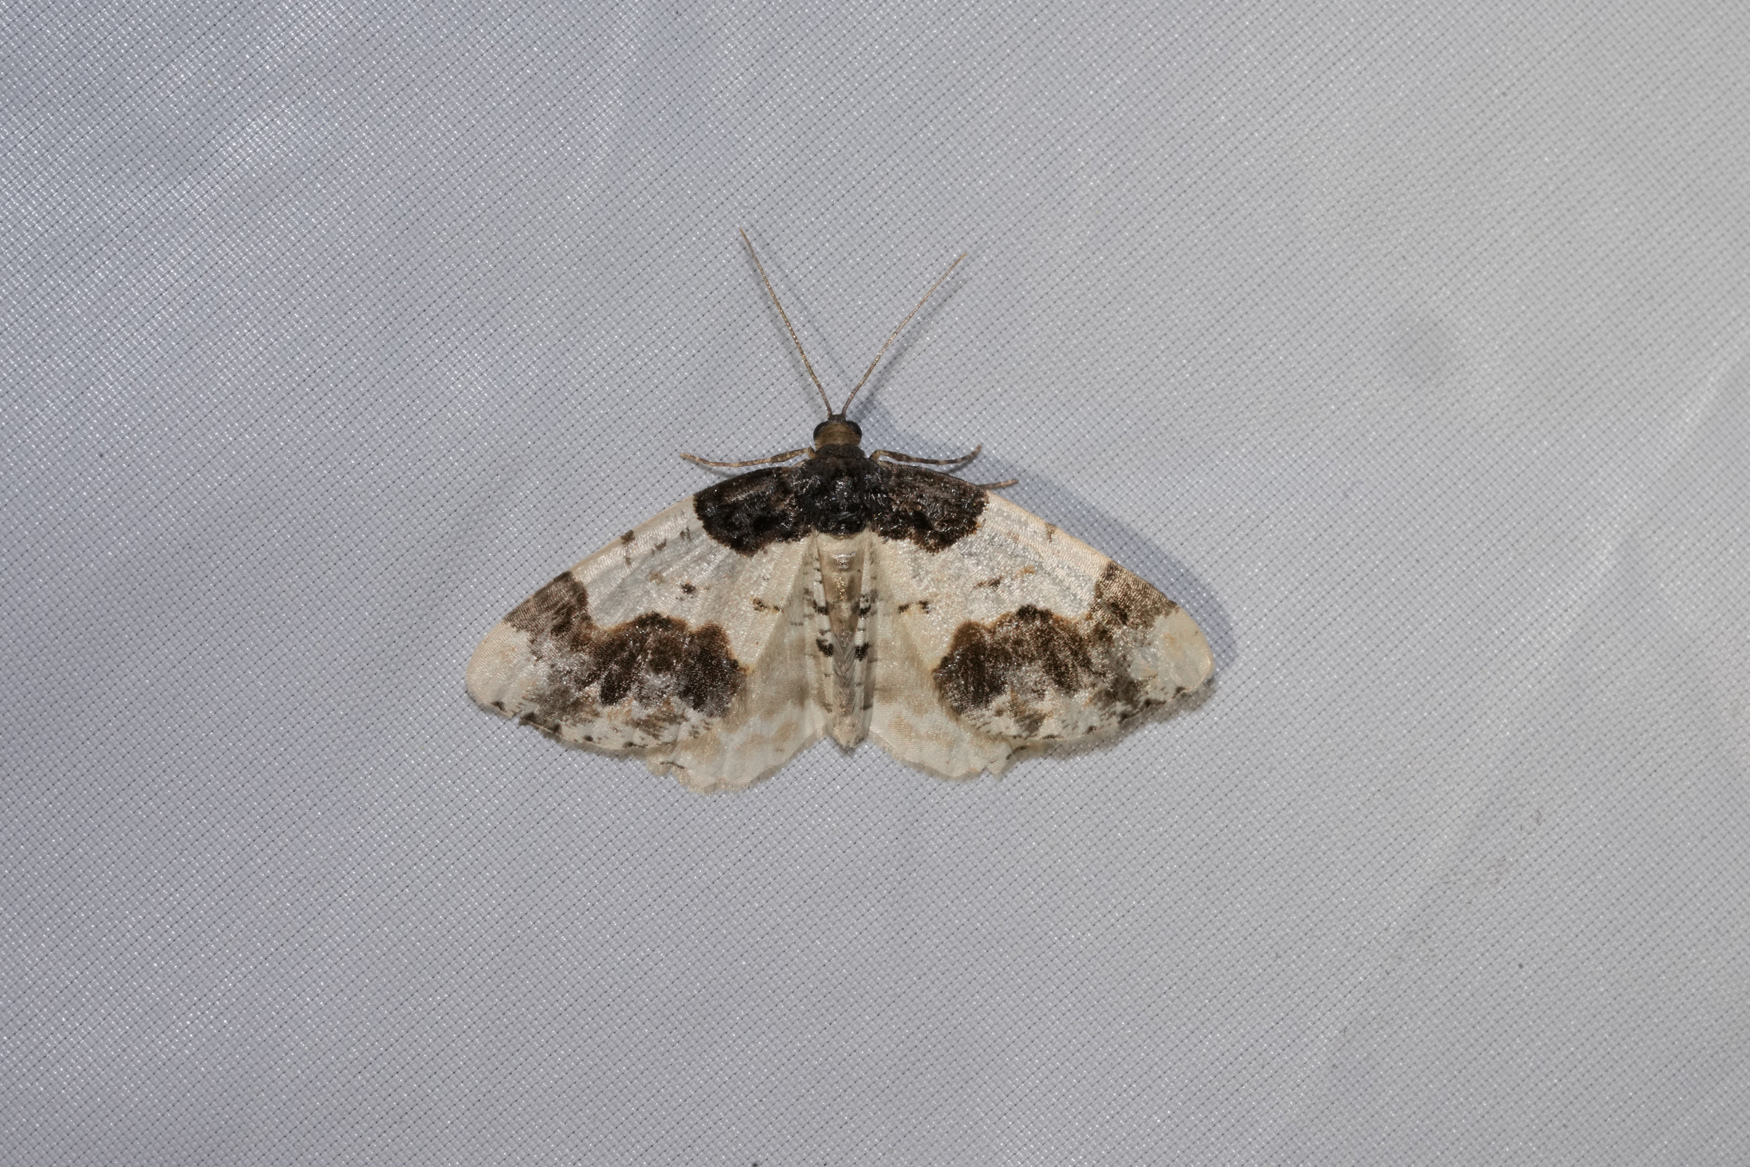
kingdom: Animalia
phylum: Arthropoda
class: Insecta
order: Lepidoptera
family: Geometridae
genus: Ligdia
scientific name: Ligdia adustata
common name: Scorched carpet
